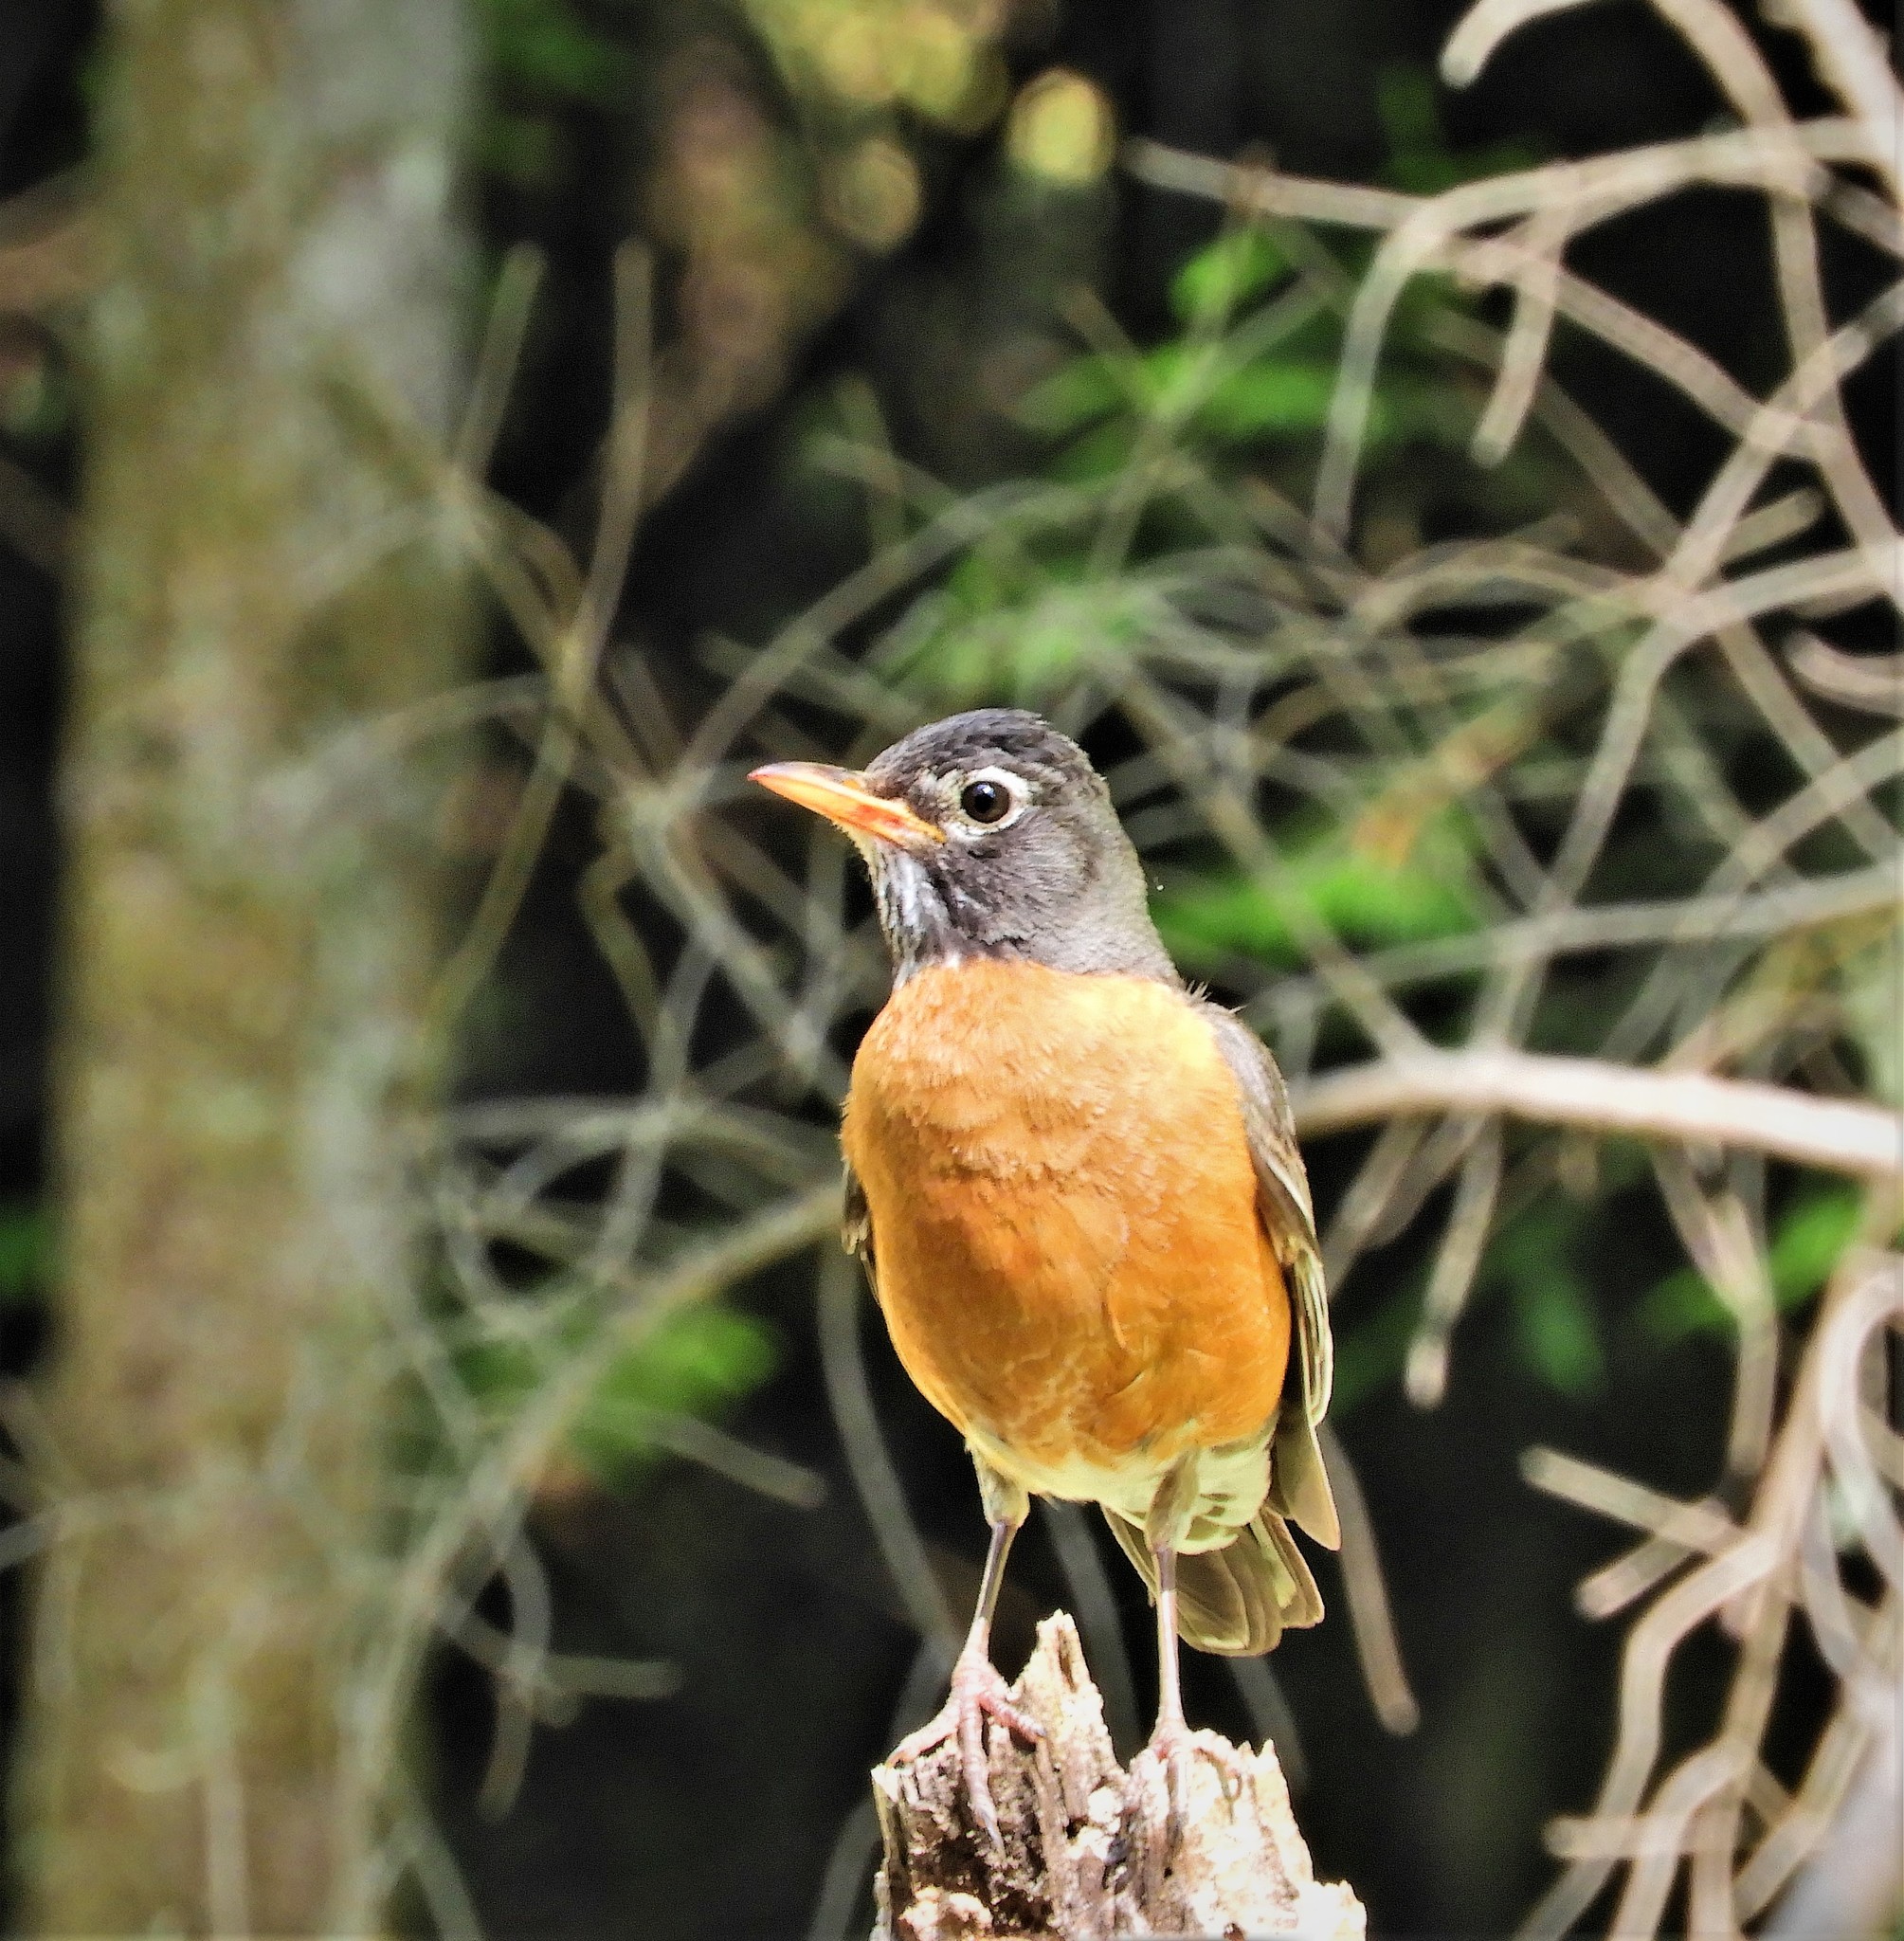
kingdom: Animalia
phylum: Chordata
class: Aves
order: Passeriformes
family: Turdidae
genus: Turdus
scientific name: Turdus migratorius
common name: American robin
